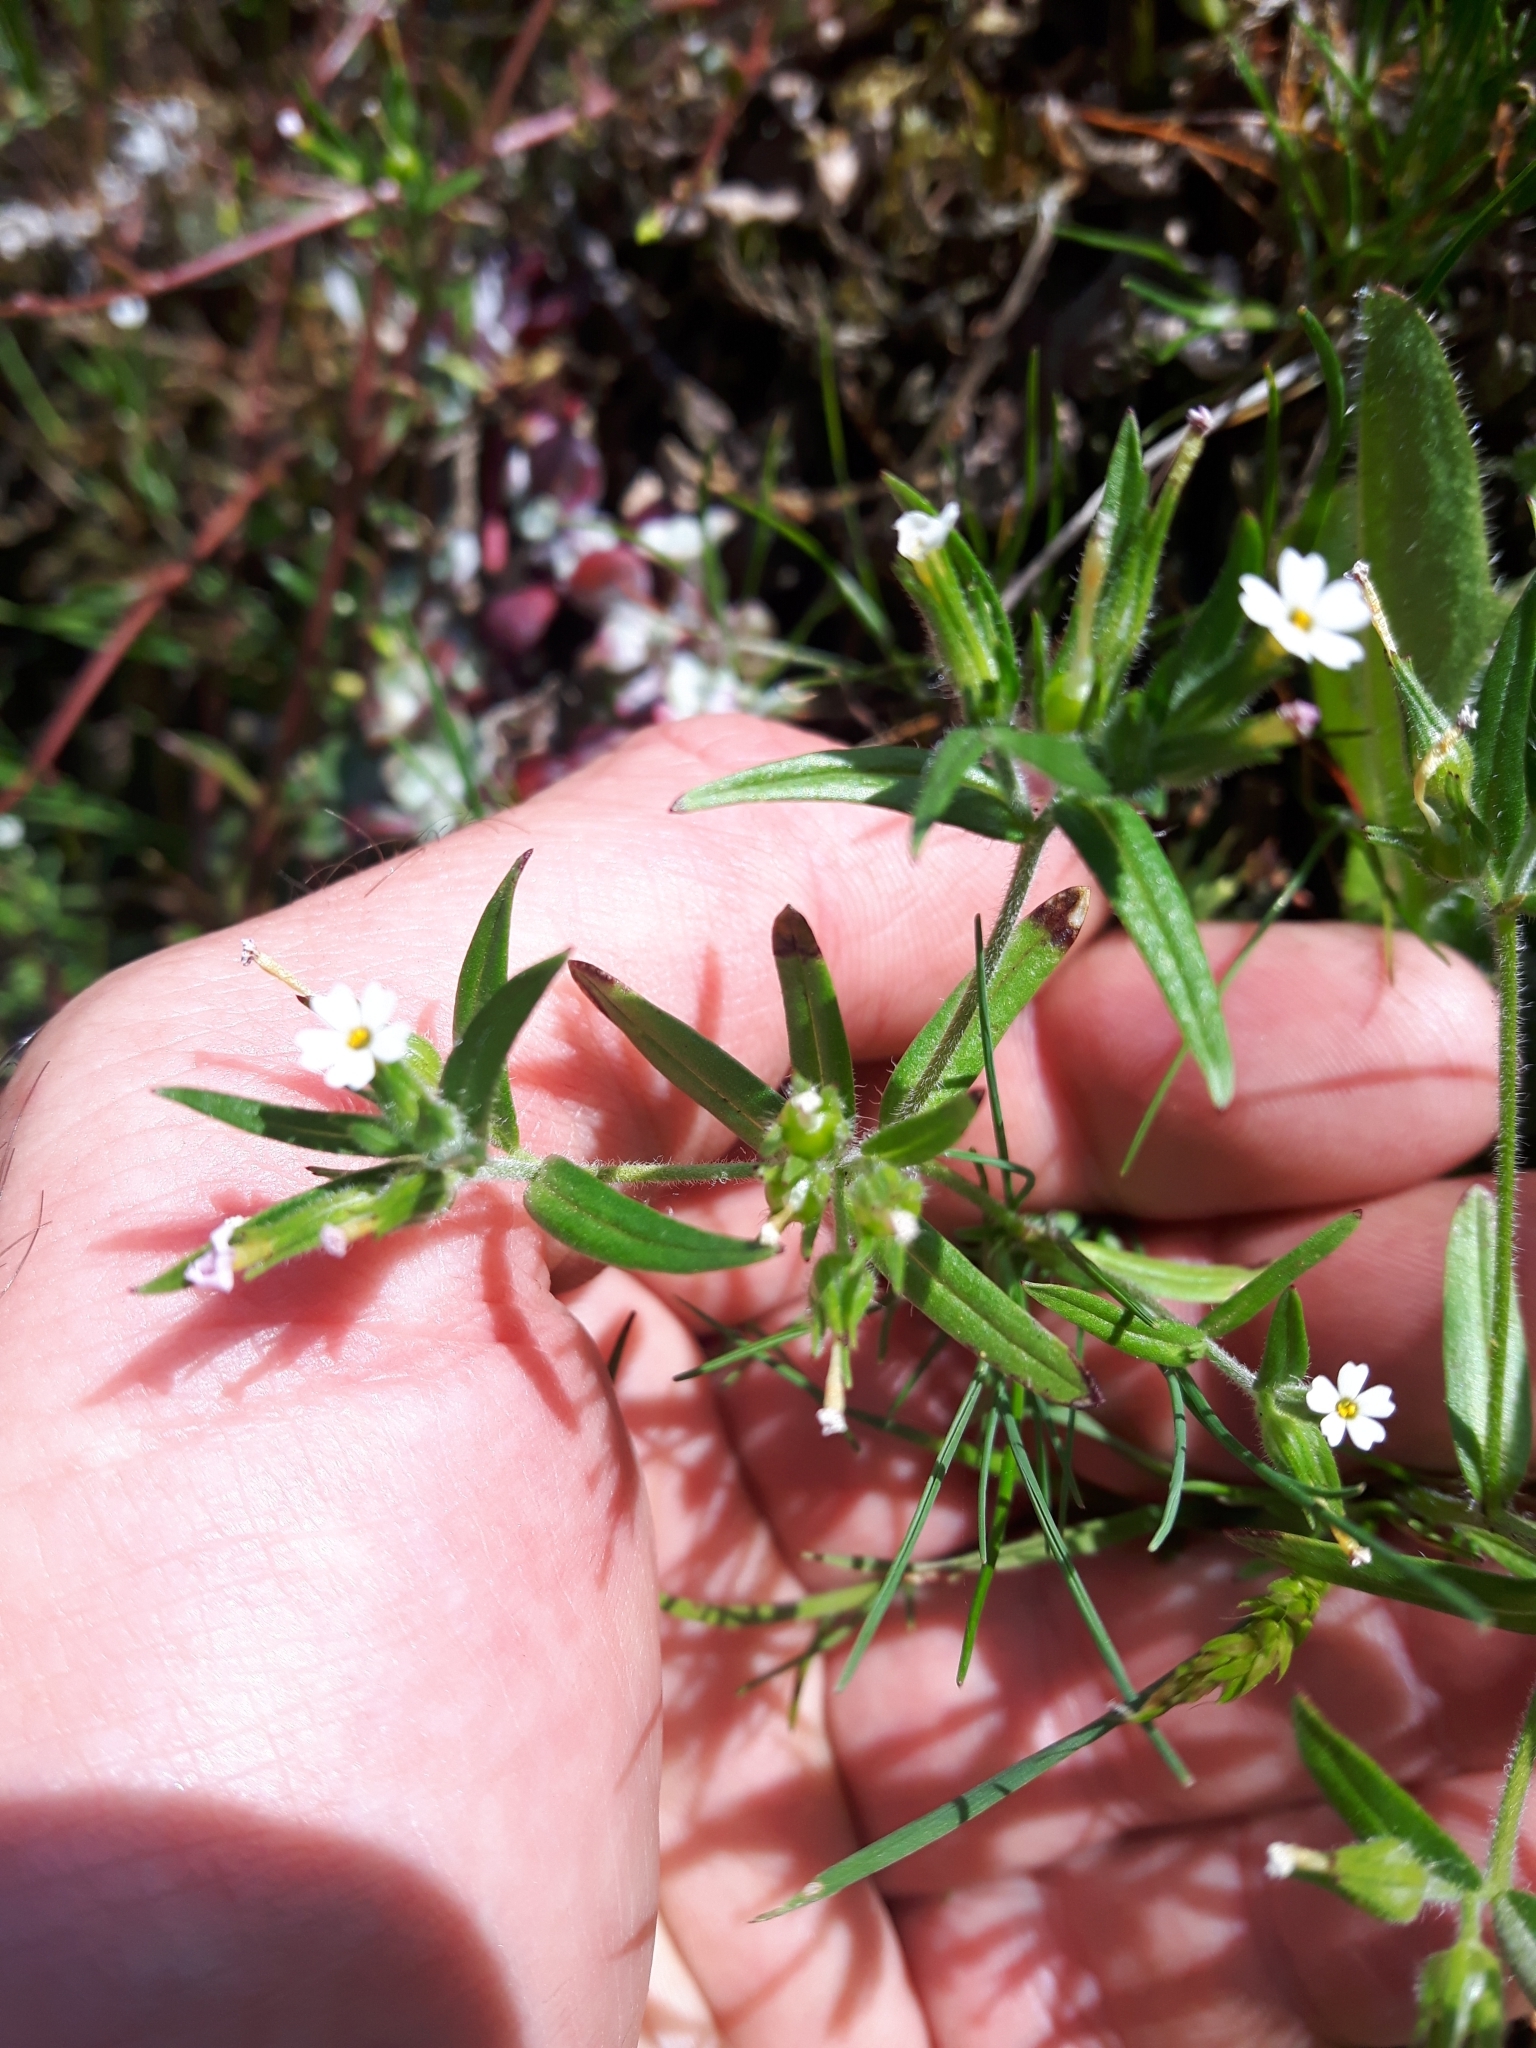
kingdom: Plantae
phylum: Tracheophyta
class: Magnoliopsida
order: Ericales
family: Polemoniaceae
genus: Phlox
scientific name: Phlox gracilis
